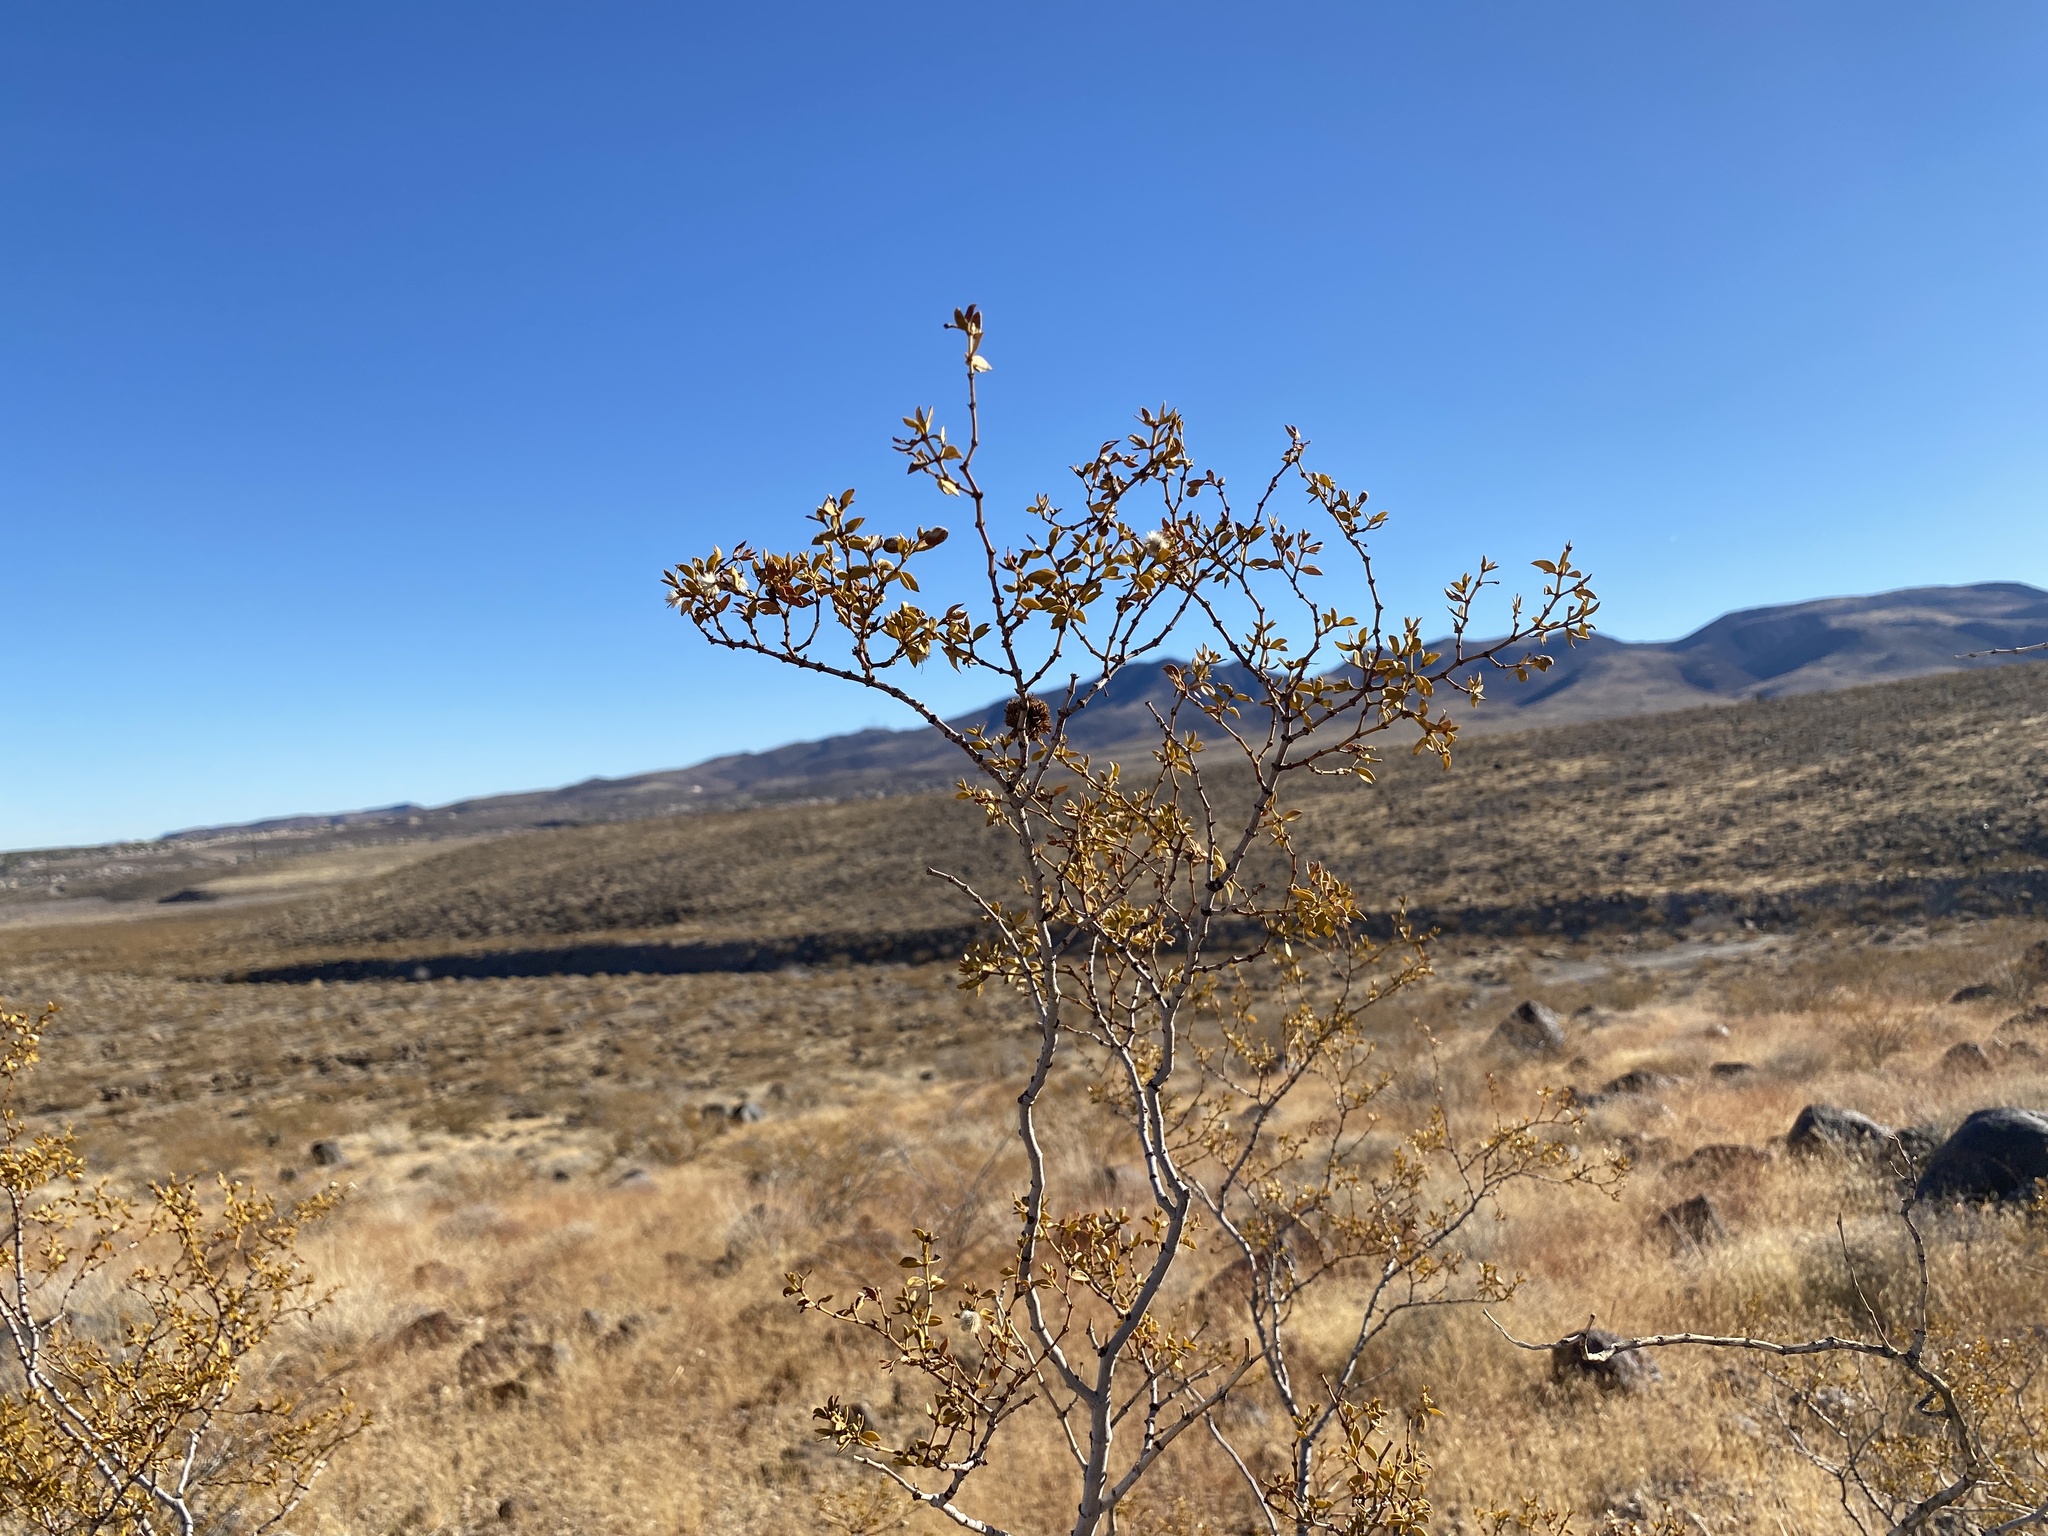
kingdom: Plantae
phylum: Tracheophyta
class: Magnoliopsida
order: Zygophyllales
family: Zygophyllaceae
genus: Larrea
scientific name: Larrea tridentata
